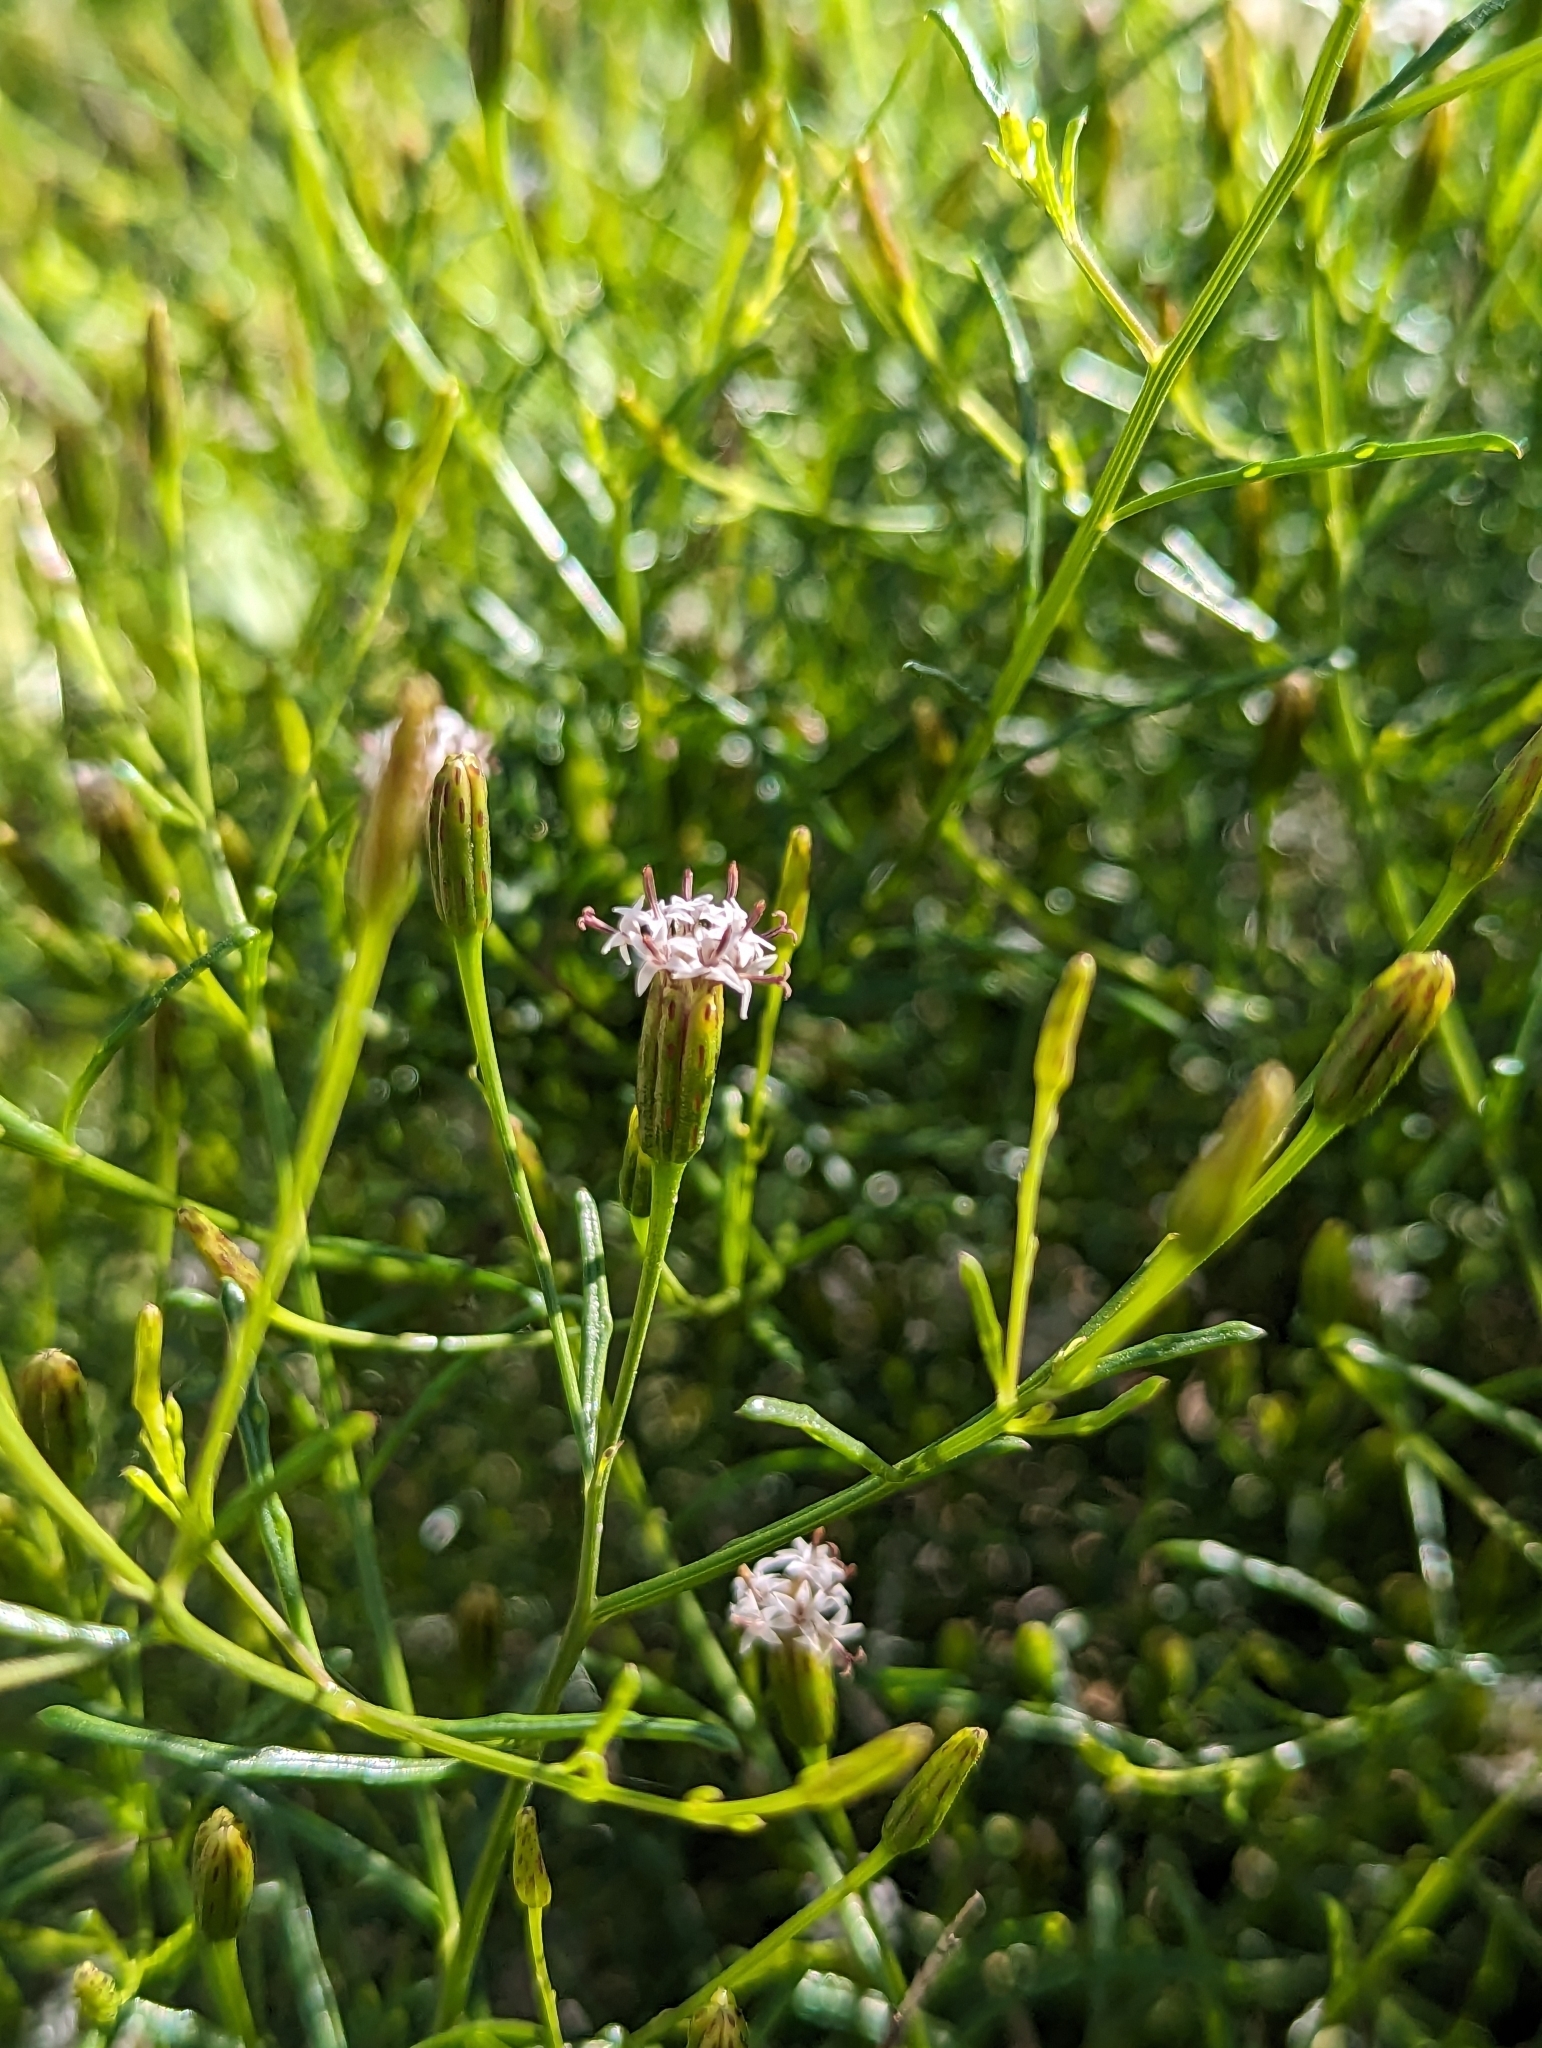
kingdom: Plantae
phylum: Tracheophyta
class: Magnoliopsida
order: Asterales
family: Asteraceae
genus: Porophyllum
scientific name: Porophyllum gracile
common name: Odora
